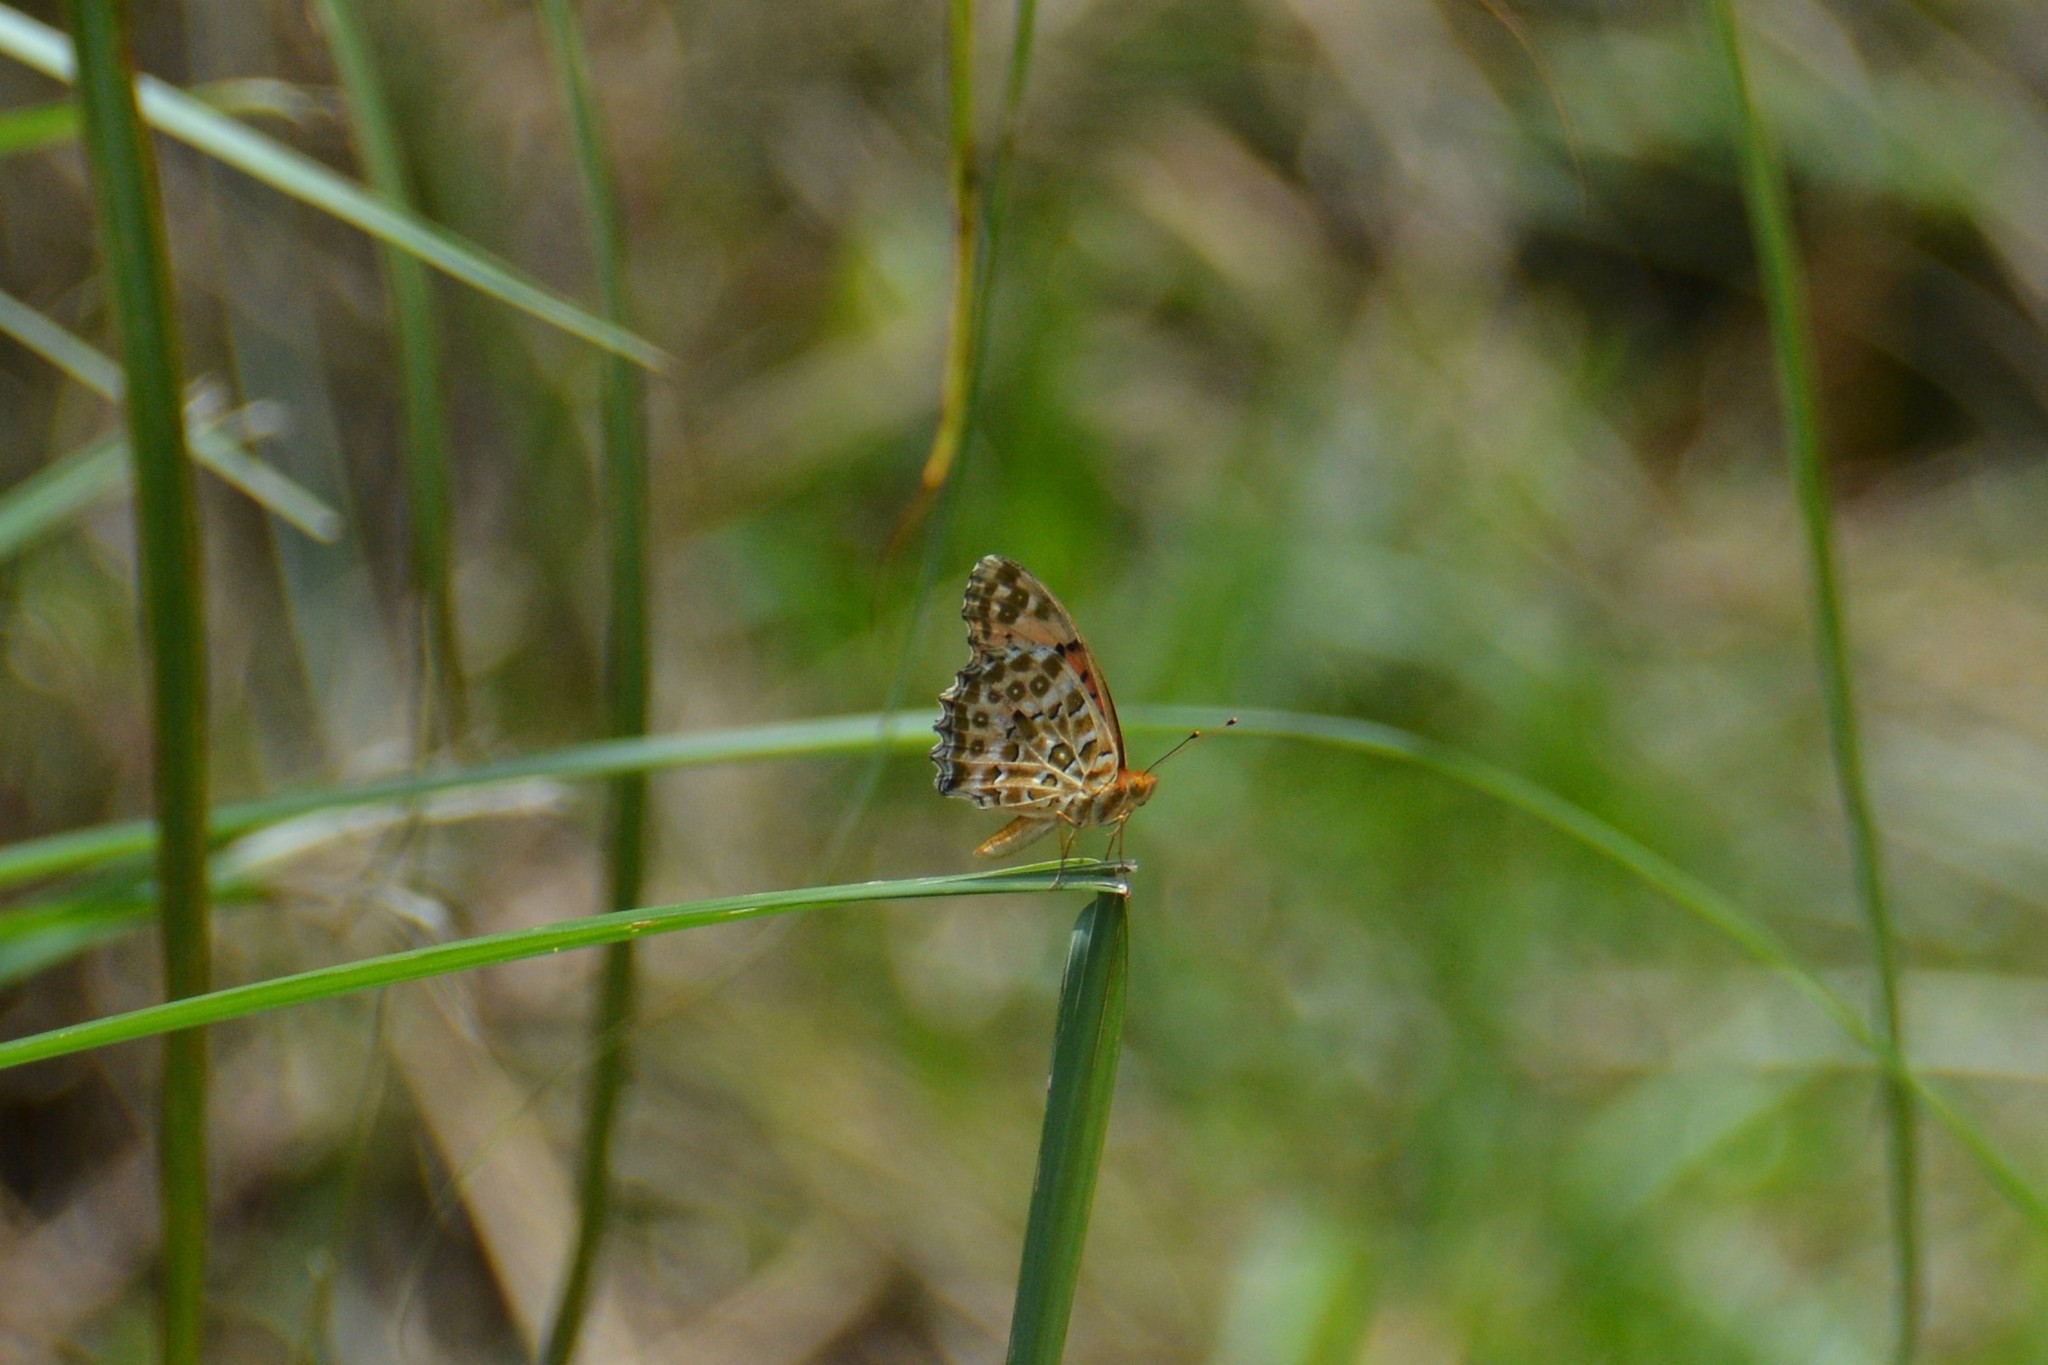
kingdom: Animalia
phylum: Arthropoda
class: Insecta
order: Lepidoptera
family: Nymphalidae
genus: Argynnis
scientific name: Argynnis hyperbius
